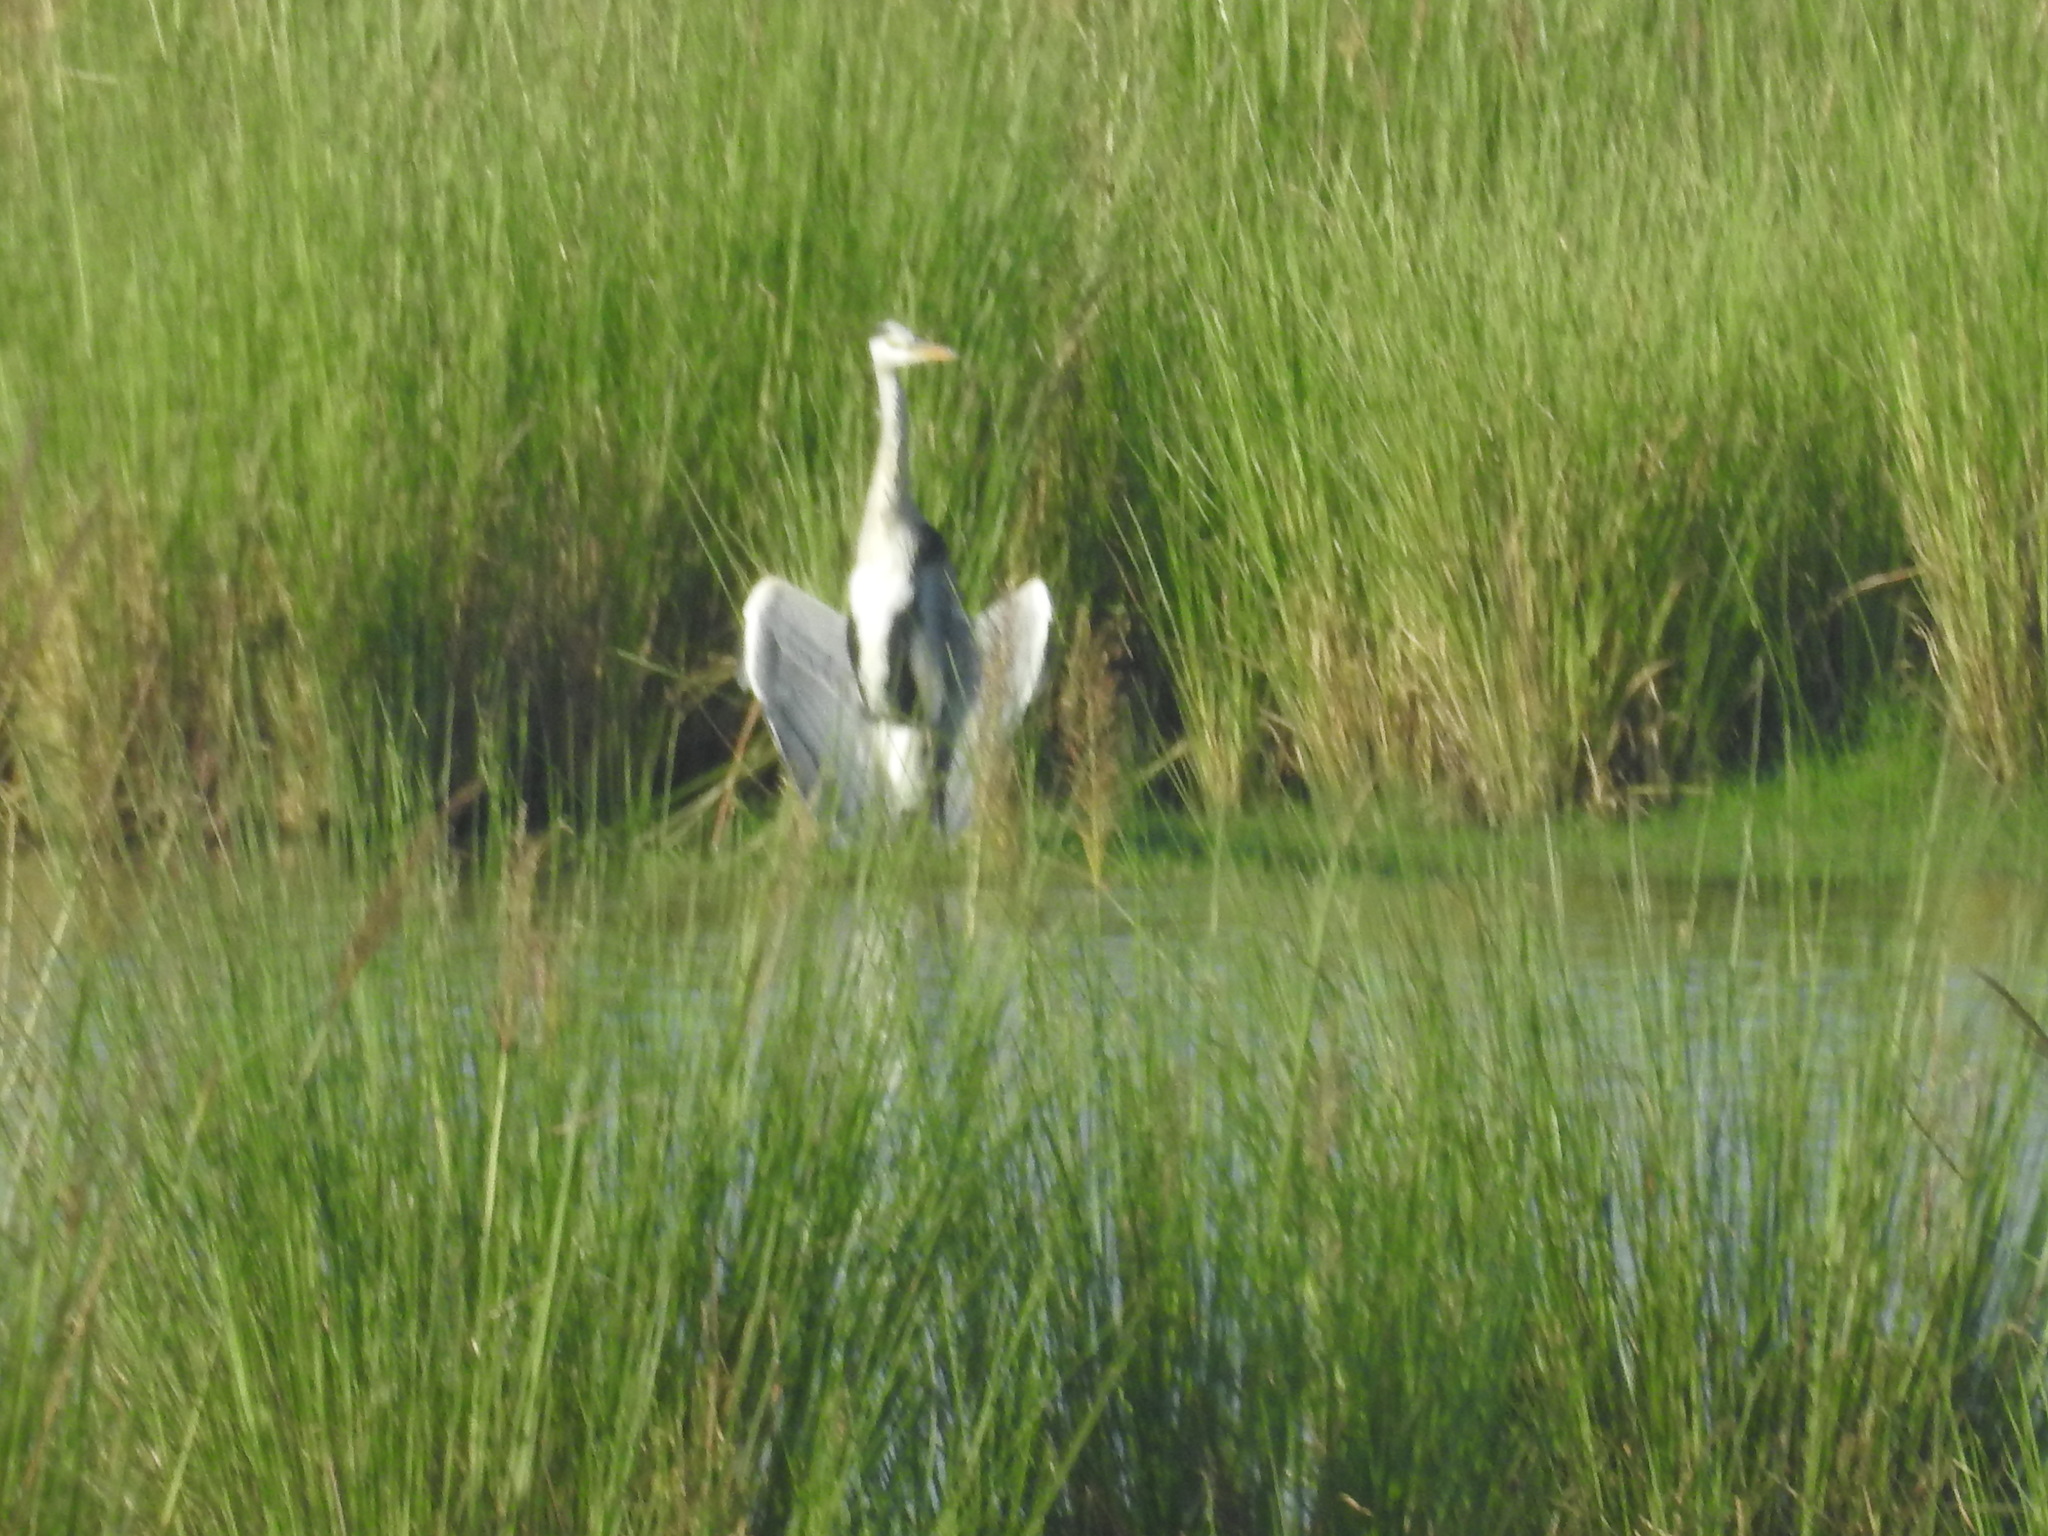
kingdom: Animalia
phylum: Chordata
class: Aves
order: Pelecaniformes
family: Ardeidae
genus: Ardea
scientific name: Ardea cinerea
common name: Grey heron
